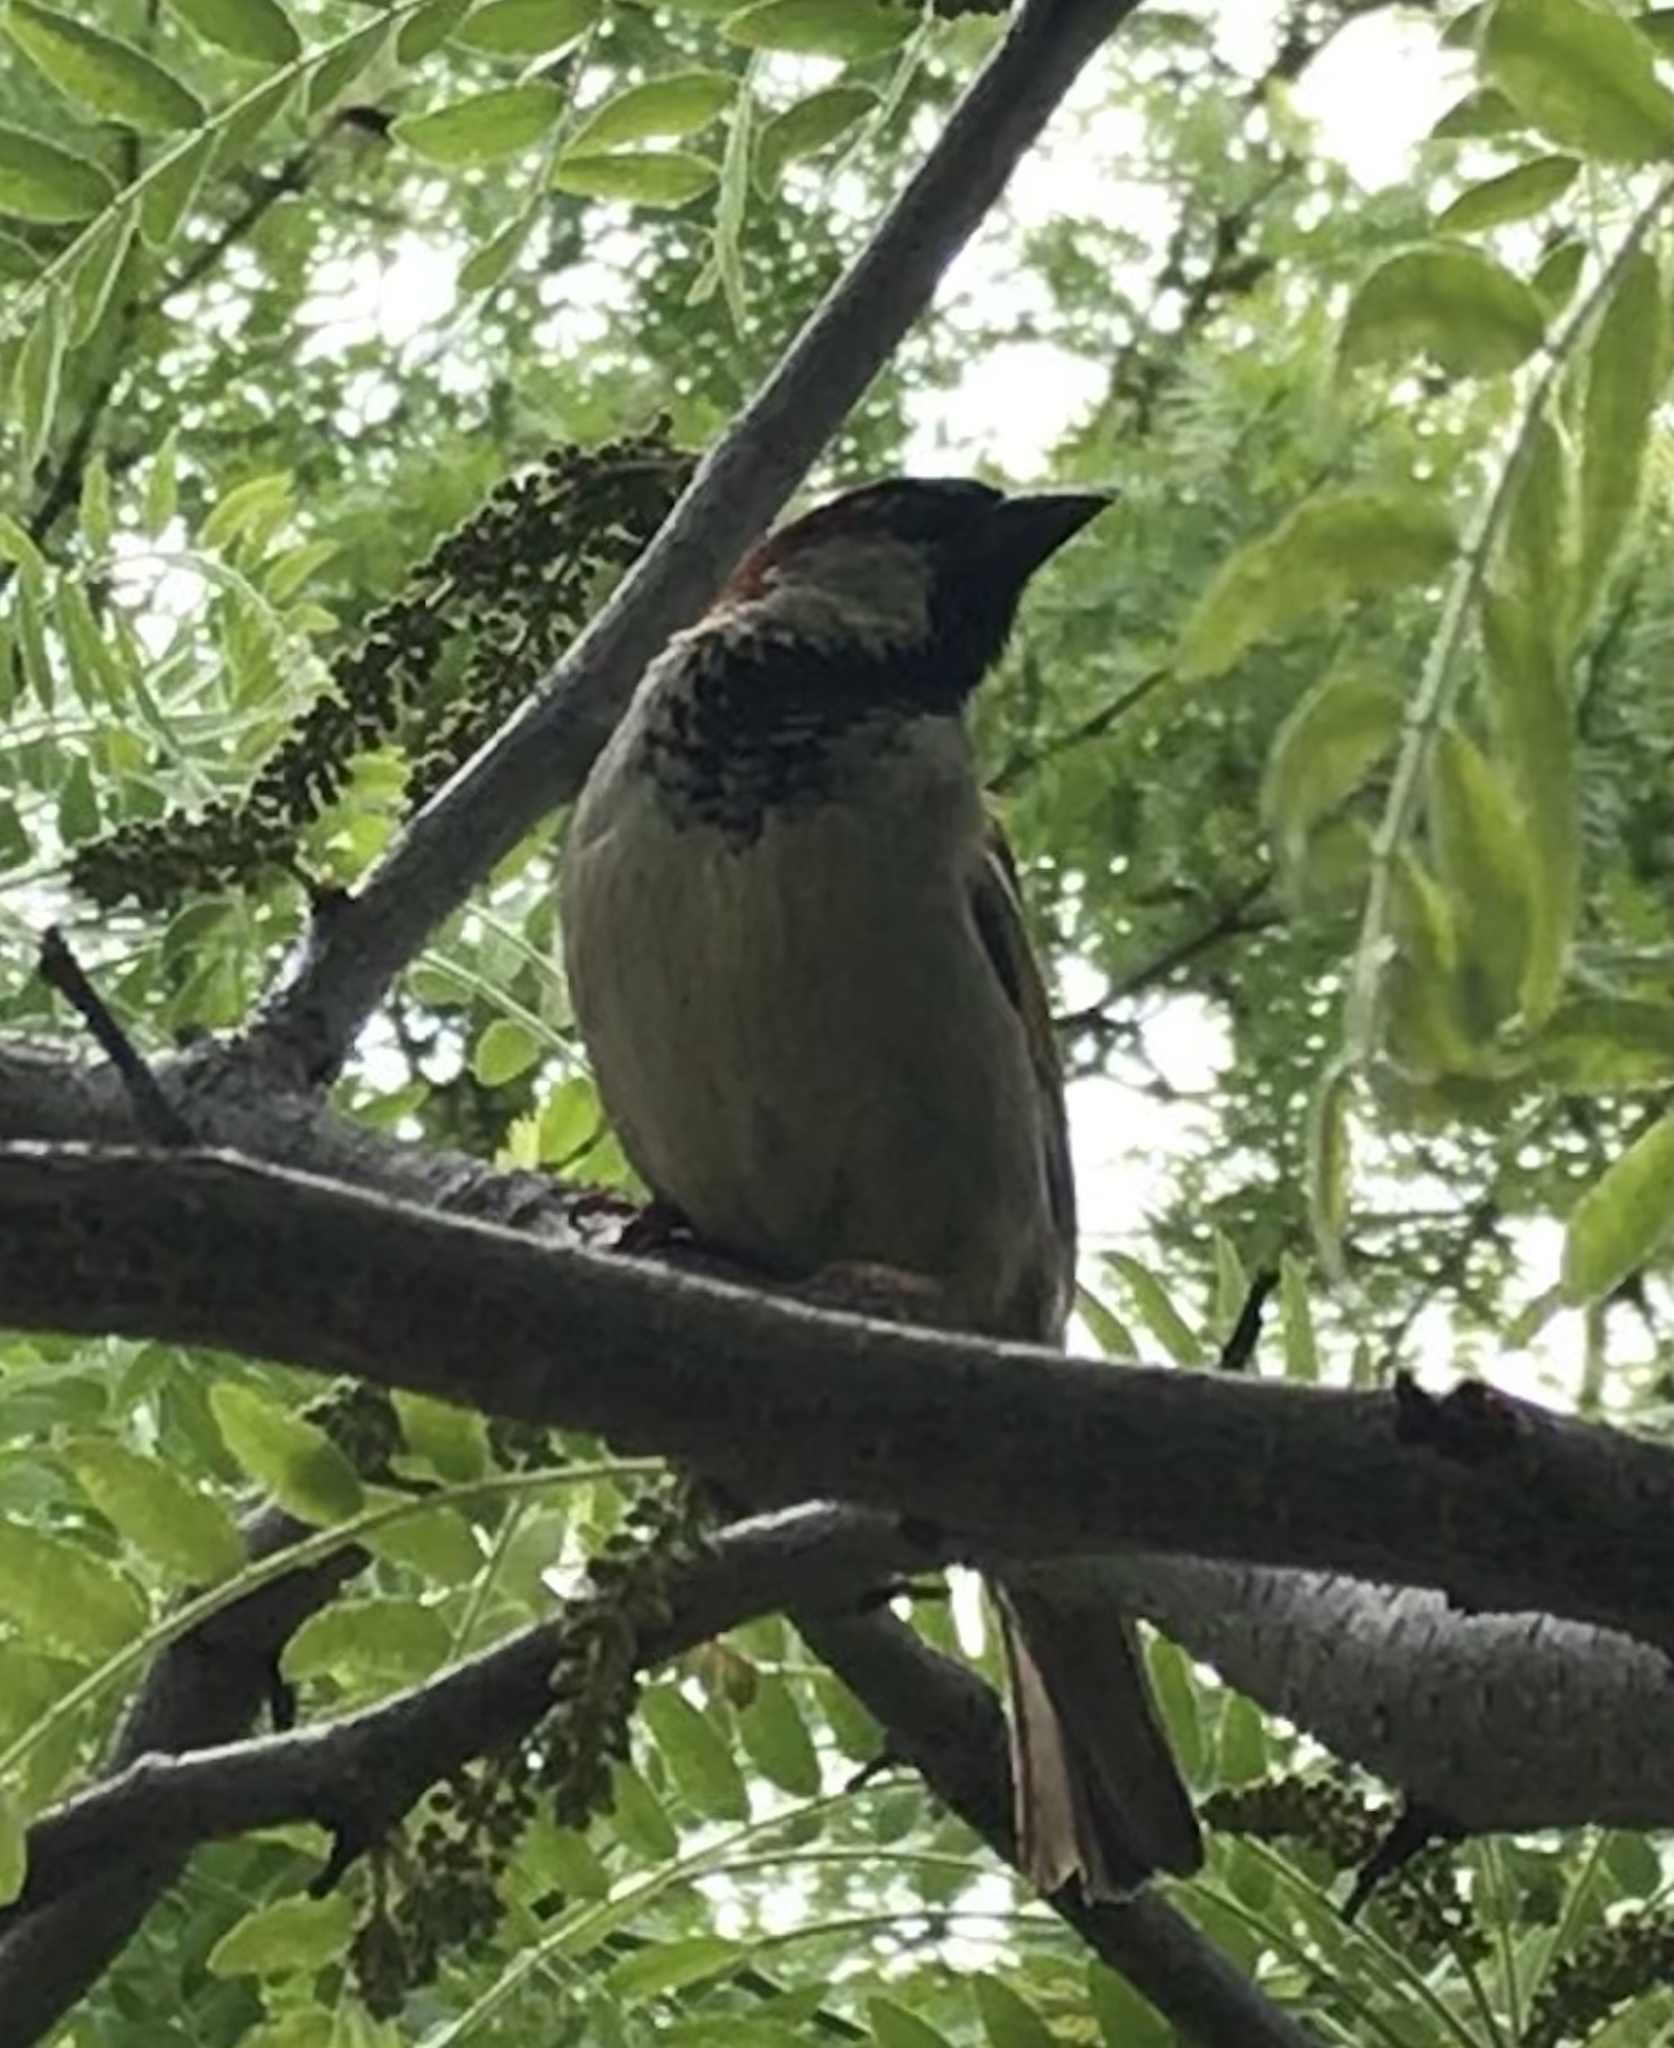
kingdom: Animalia
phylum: Chordata
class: Aves
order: Passeriformes
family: Passeridae
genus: Passer
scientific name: Passer domesticus
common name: House sparrow
